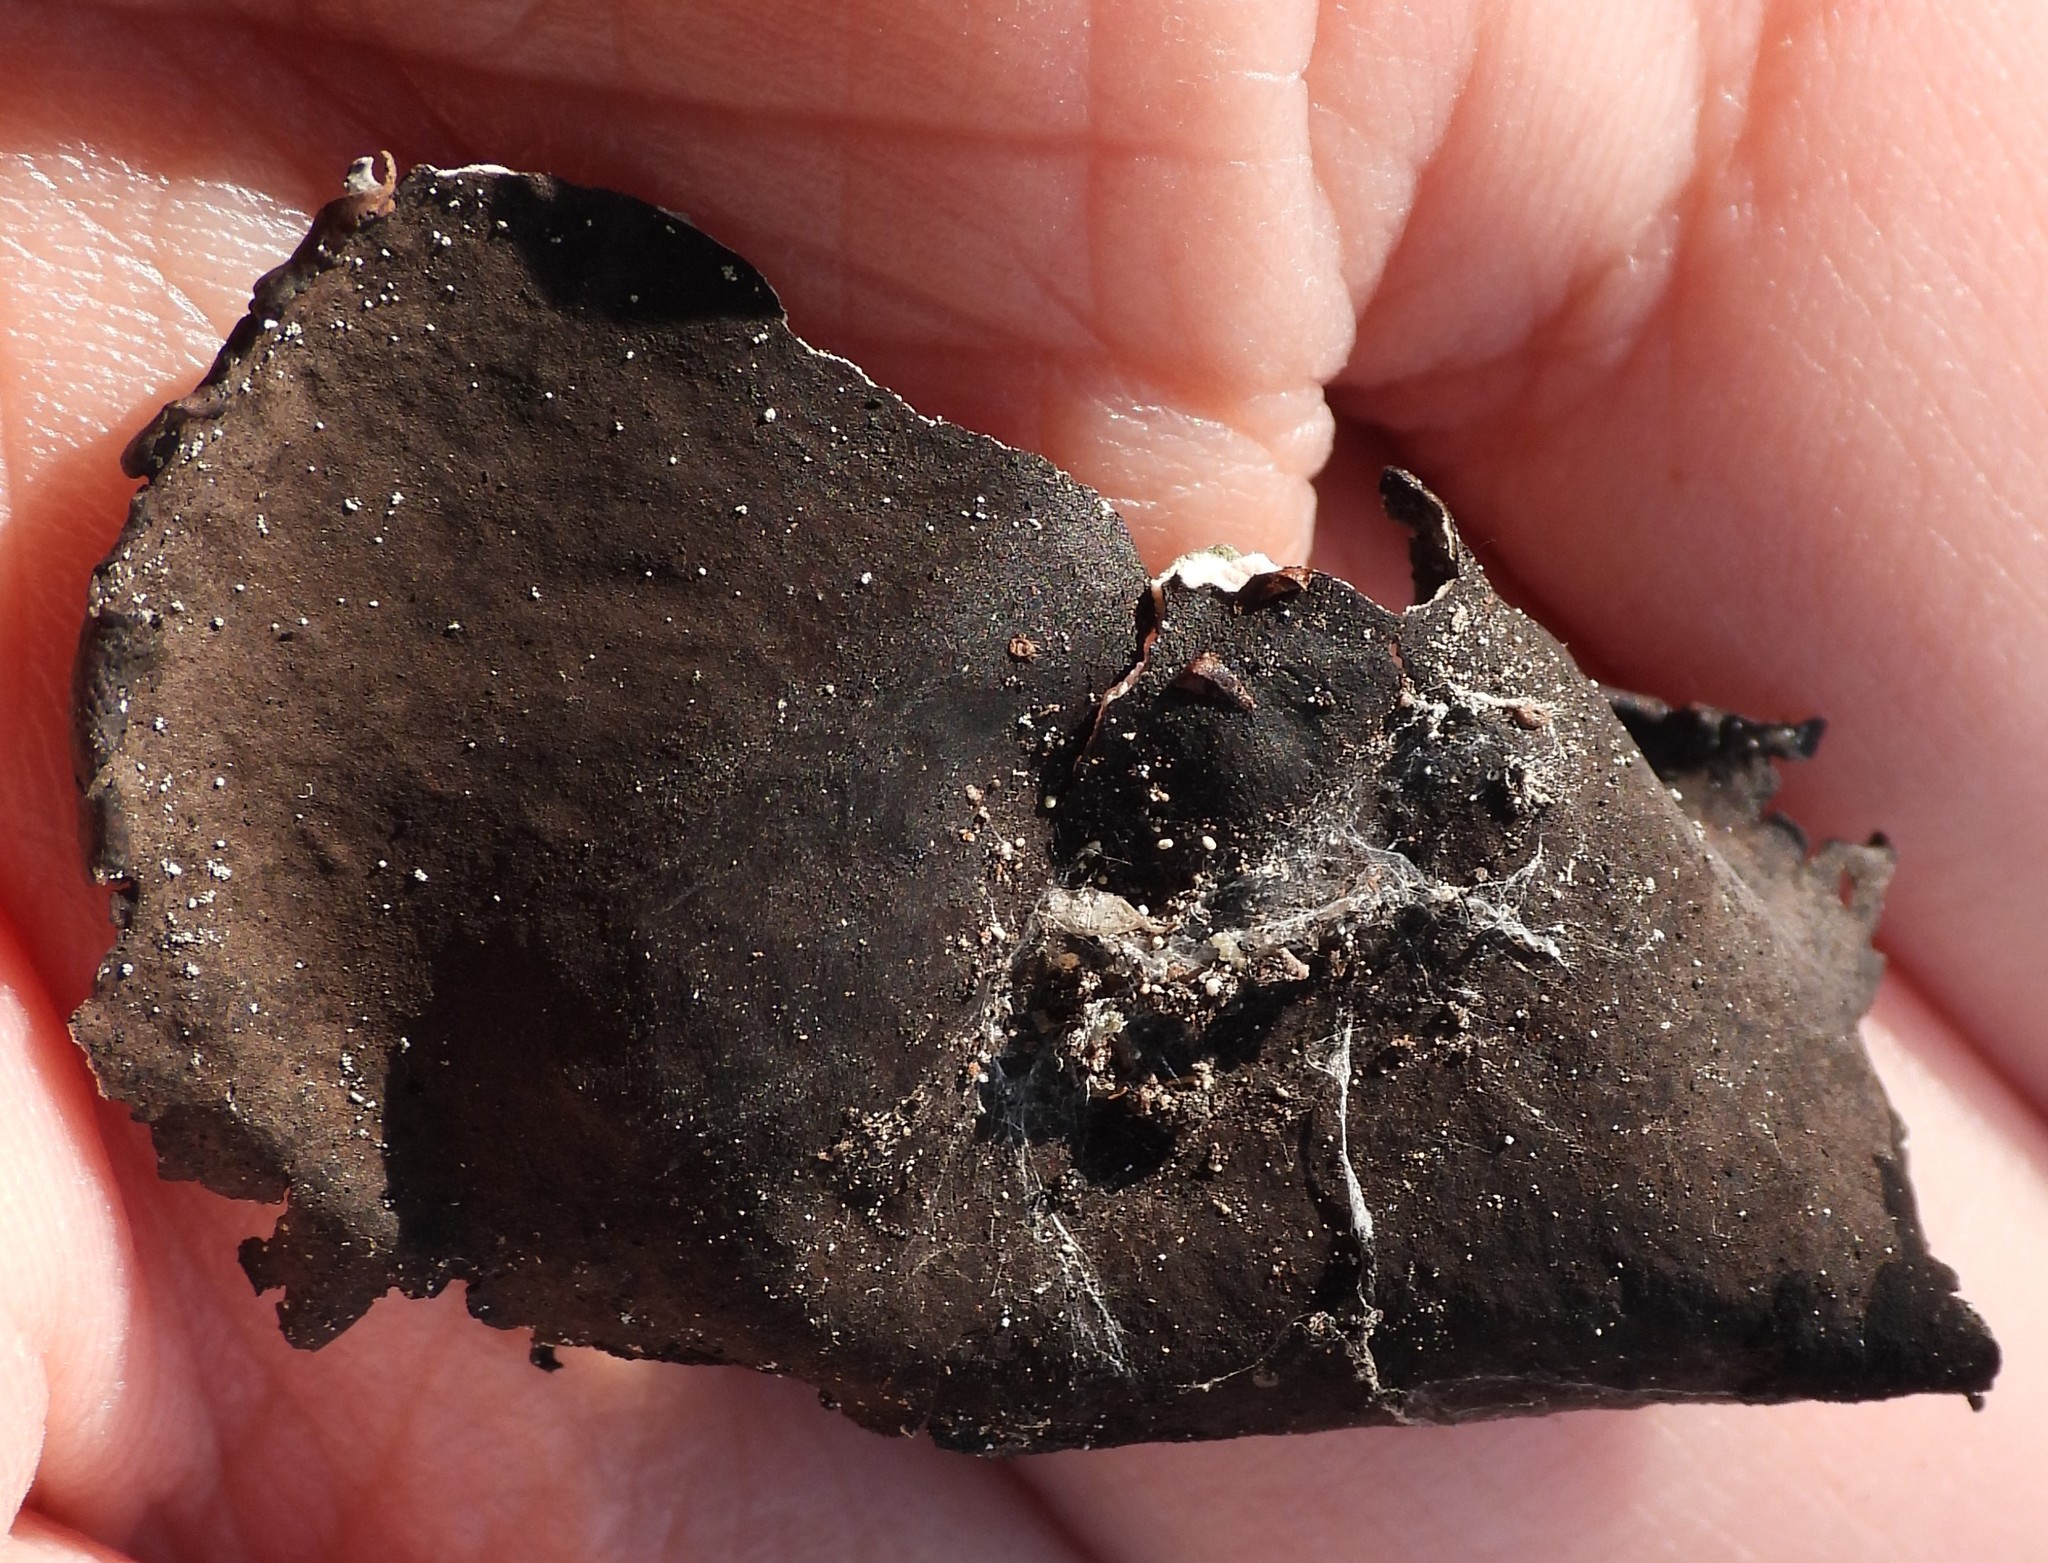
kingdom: Fungi
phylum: Ascomycota
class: Lecanoromycetes
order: Umbilicariales
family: Umbilicariaceae
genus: Umbilicaria
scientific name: Umbilicaria polyphylla
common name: Petalled rocktripe lichen
